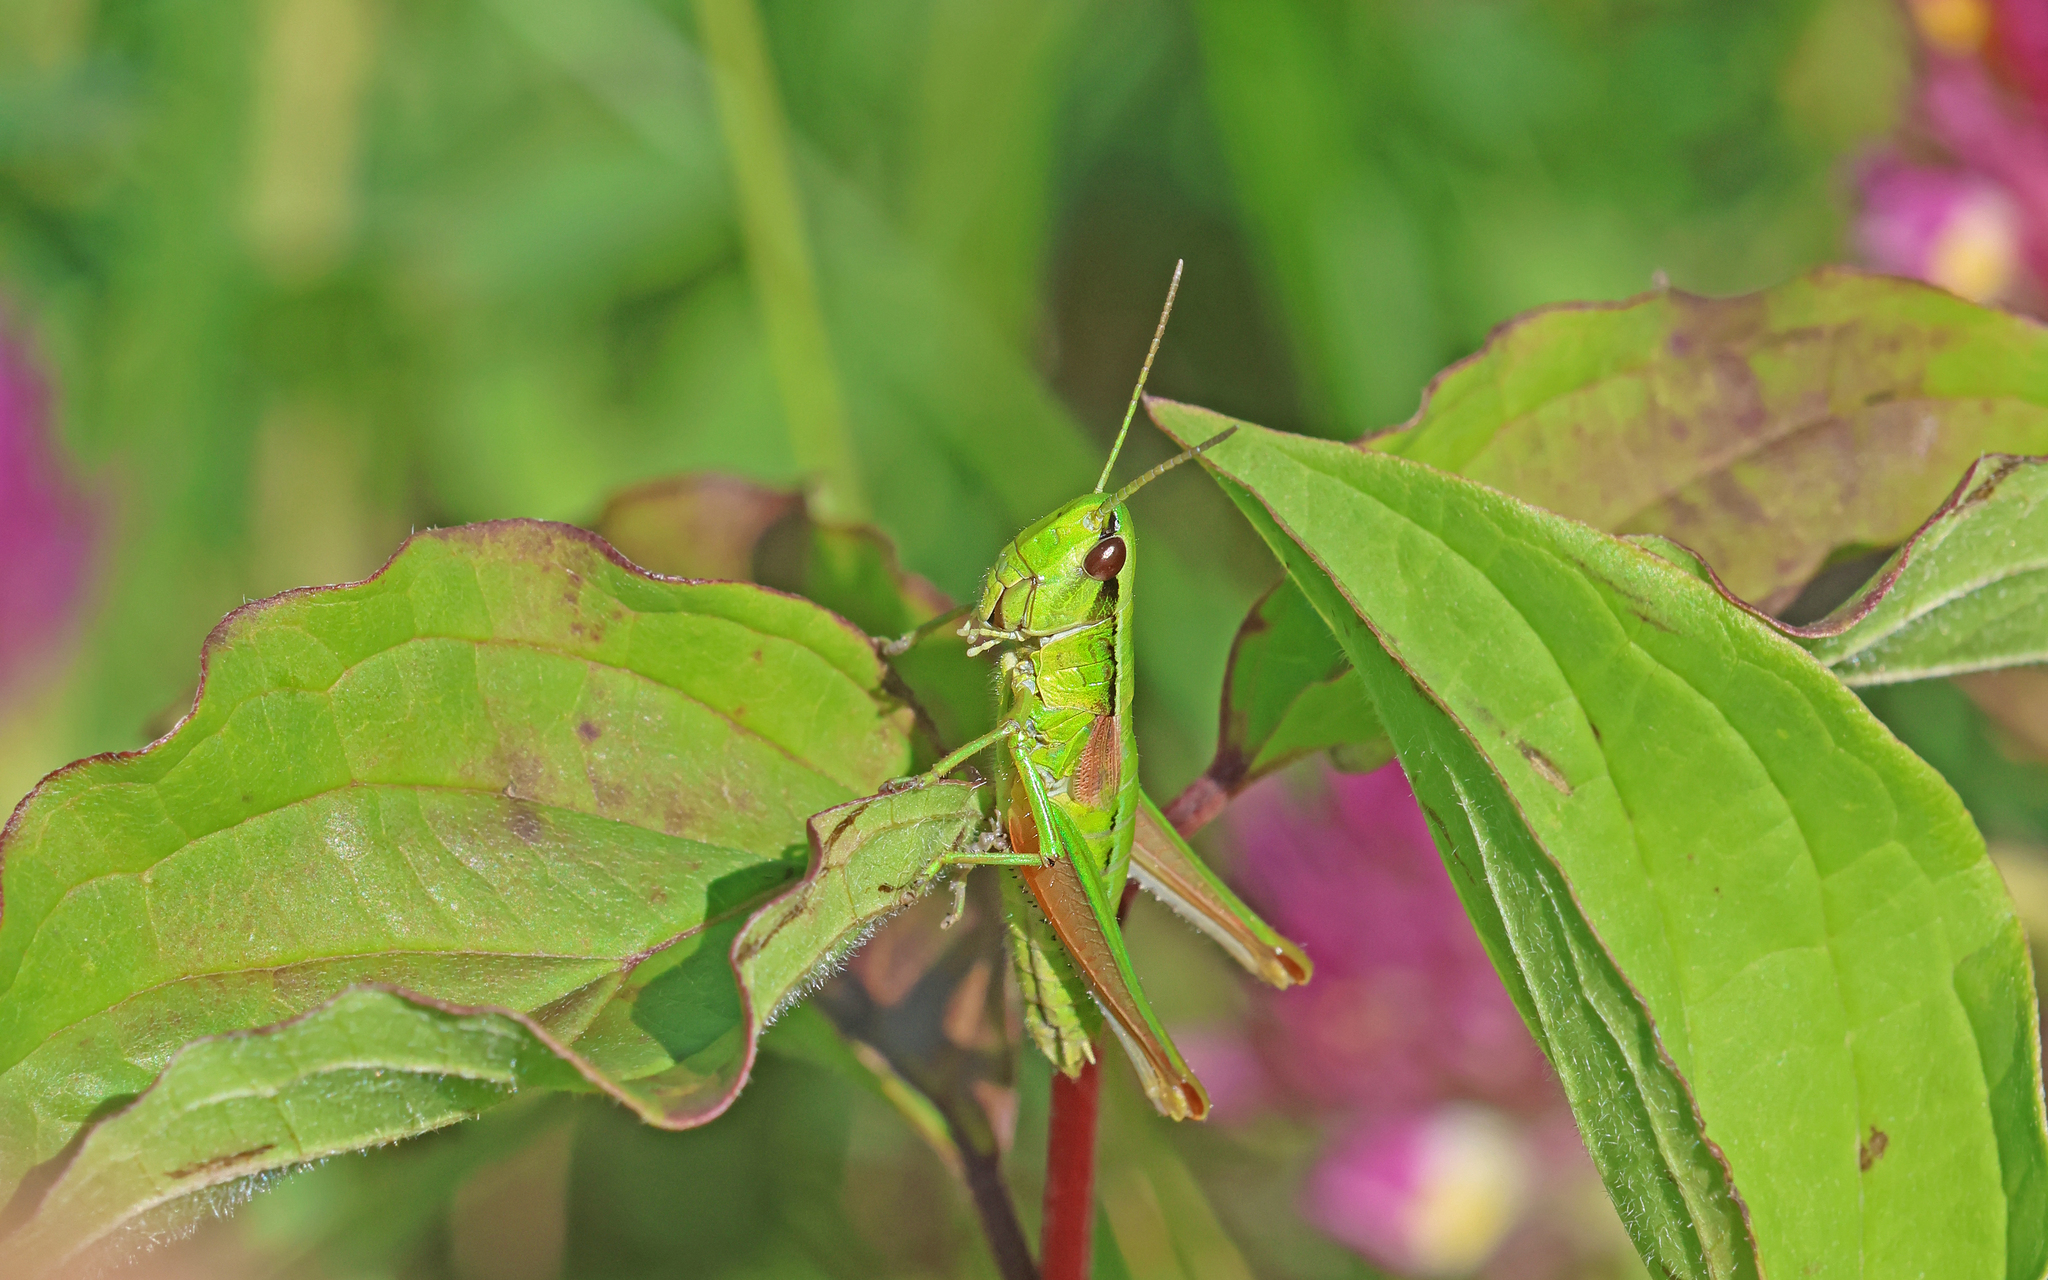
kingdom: Animalia
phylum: Arthropoda
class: Insecta
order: Orthoptera
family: Acrididae
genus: Euthystira
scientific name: Euthystira brachyptera
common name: Small gold grasshopper
